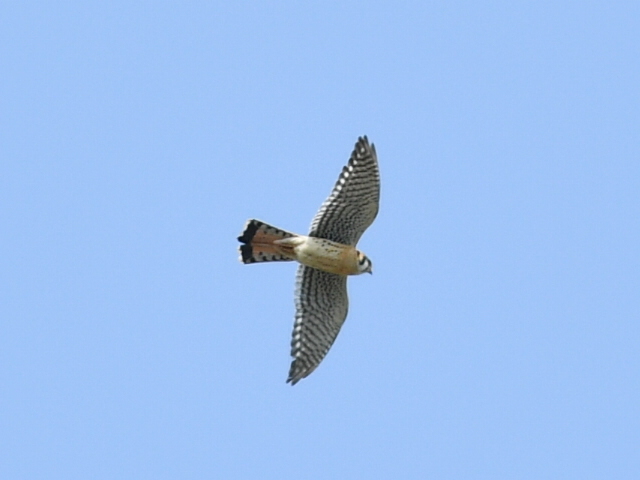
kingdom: Animalia
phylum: Chordata
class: Aves
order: Falconiformes
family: Falconidae
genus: Falco
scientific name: Falco sparverius
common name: American kestrel
